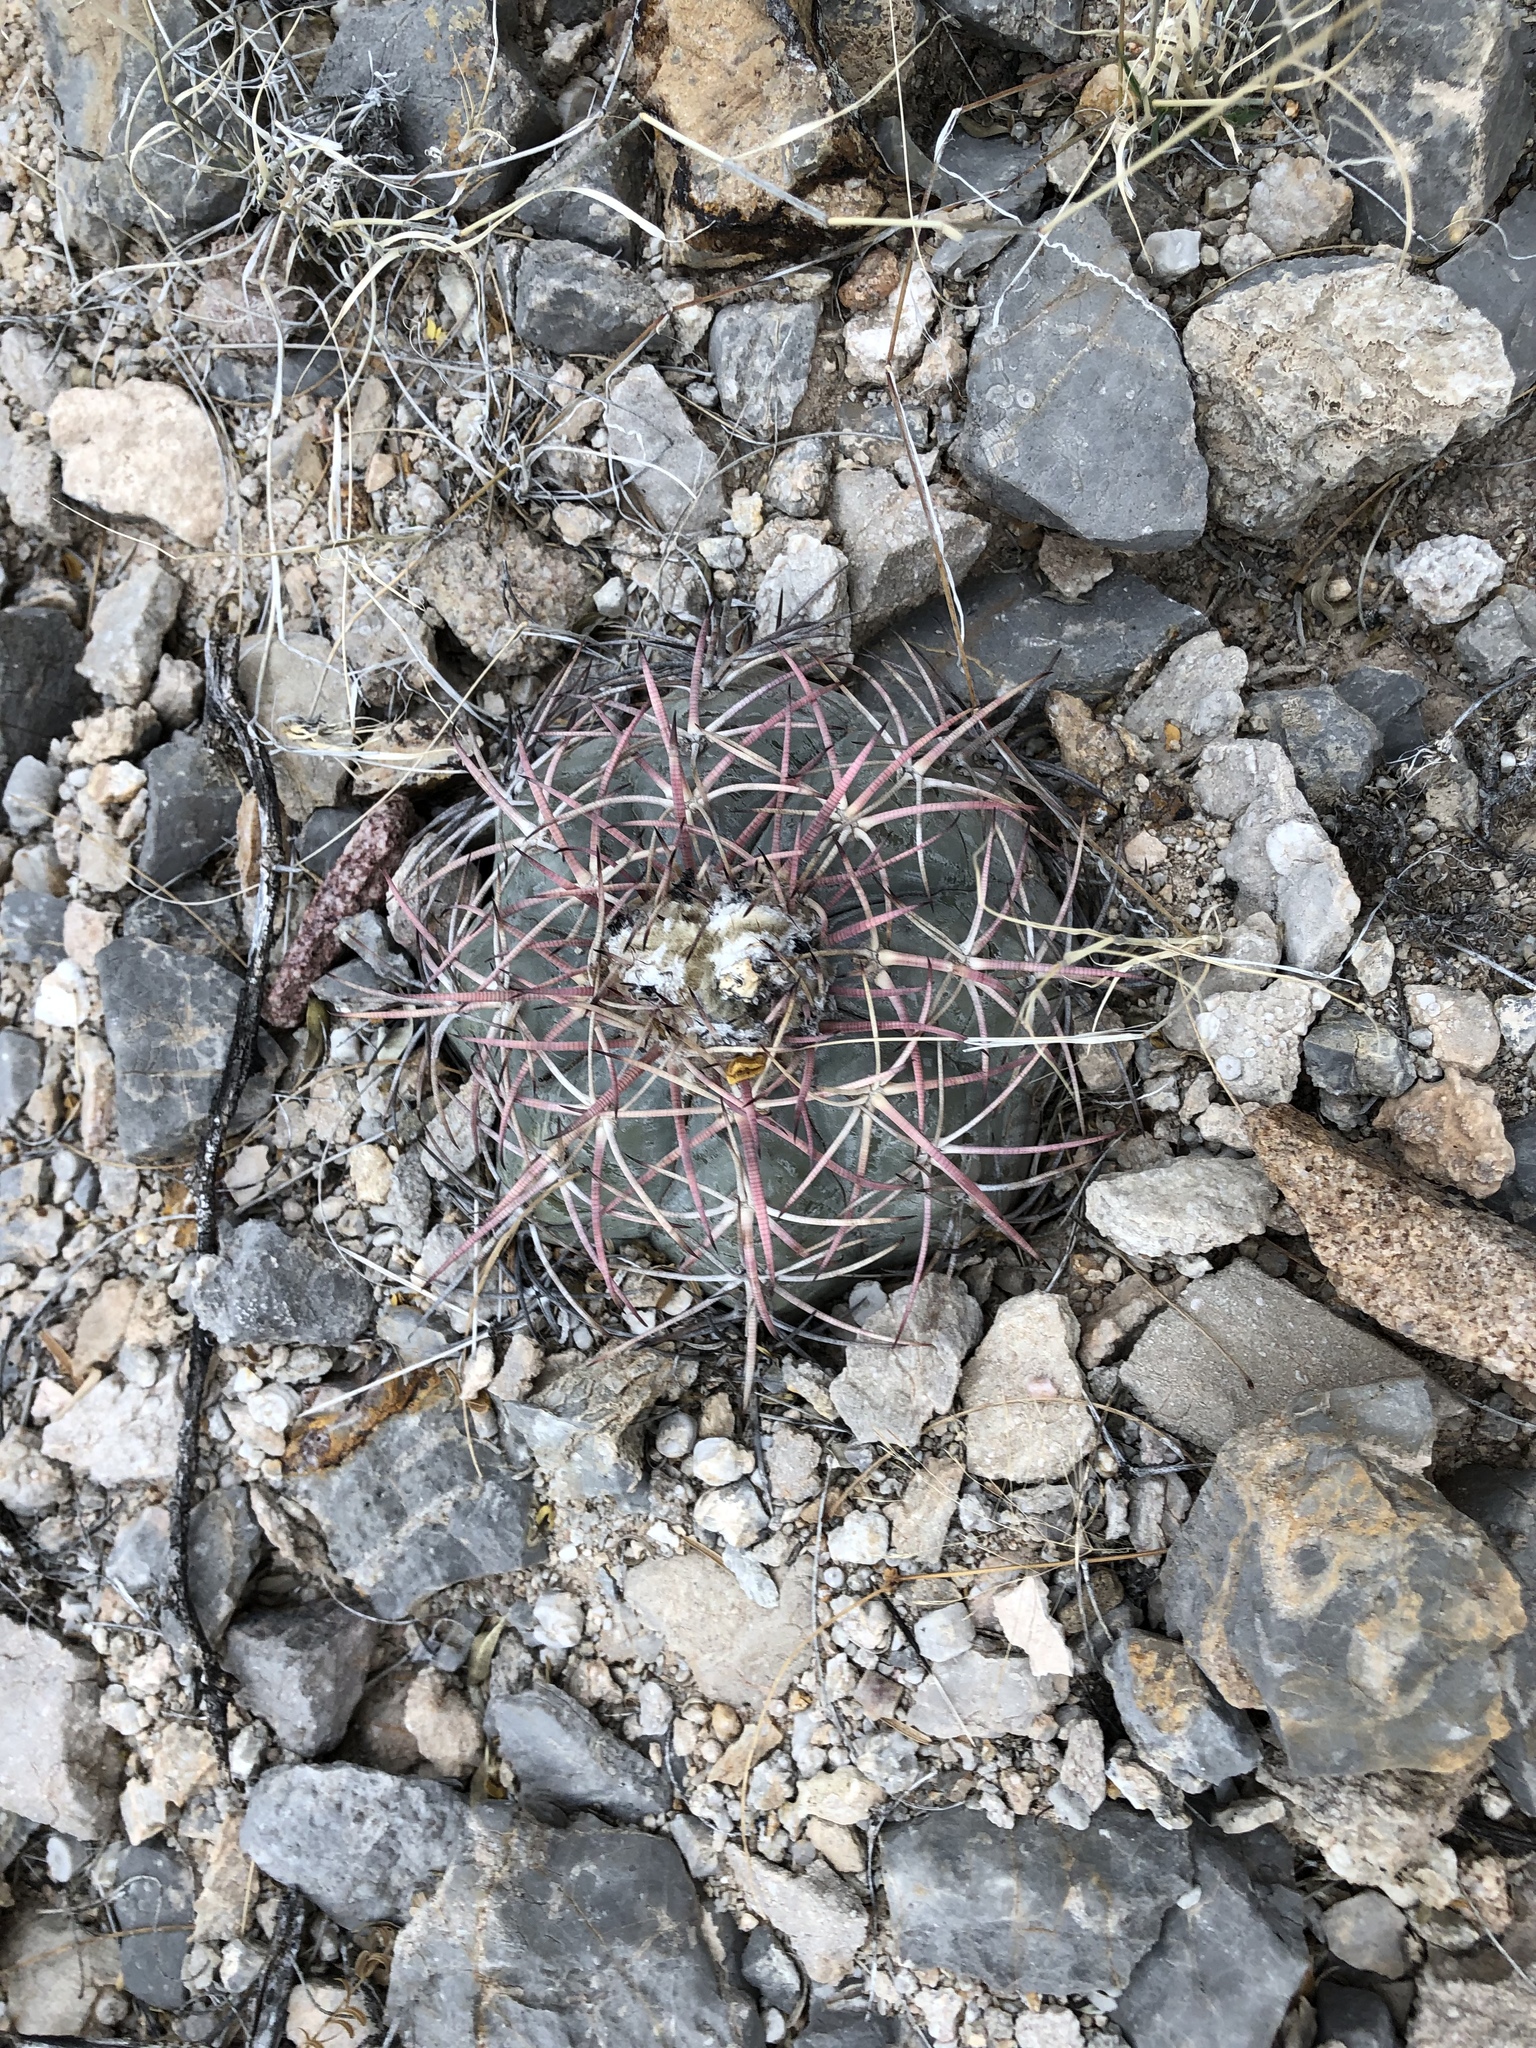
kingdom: Plantae
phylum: Tracheophyta
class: Magnoliopsida
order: Caryophyllales
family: Cactaceae
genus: Echinocactus
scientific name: Echinocactus horizonthalonius
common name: Devilshead
